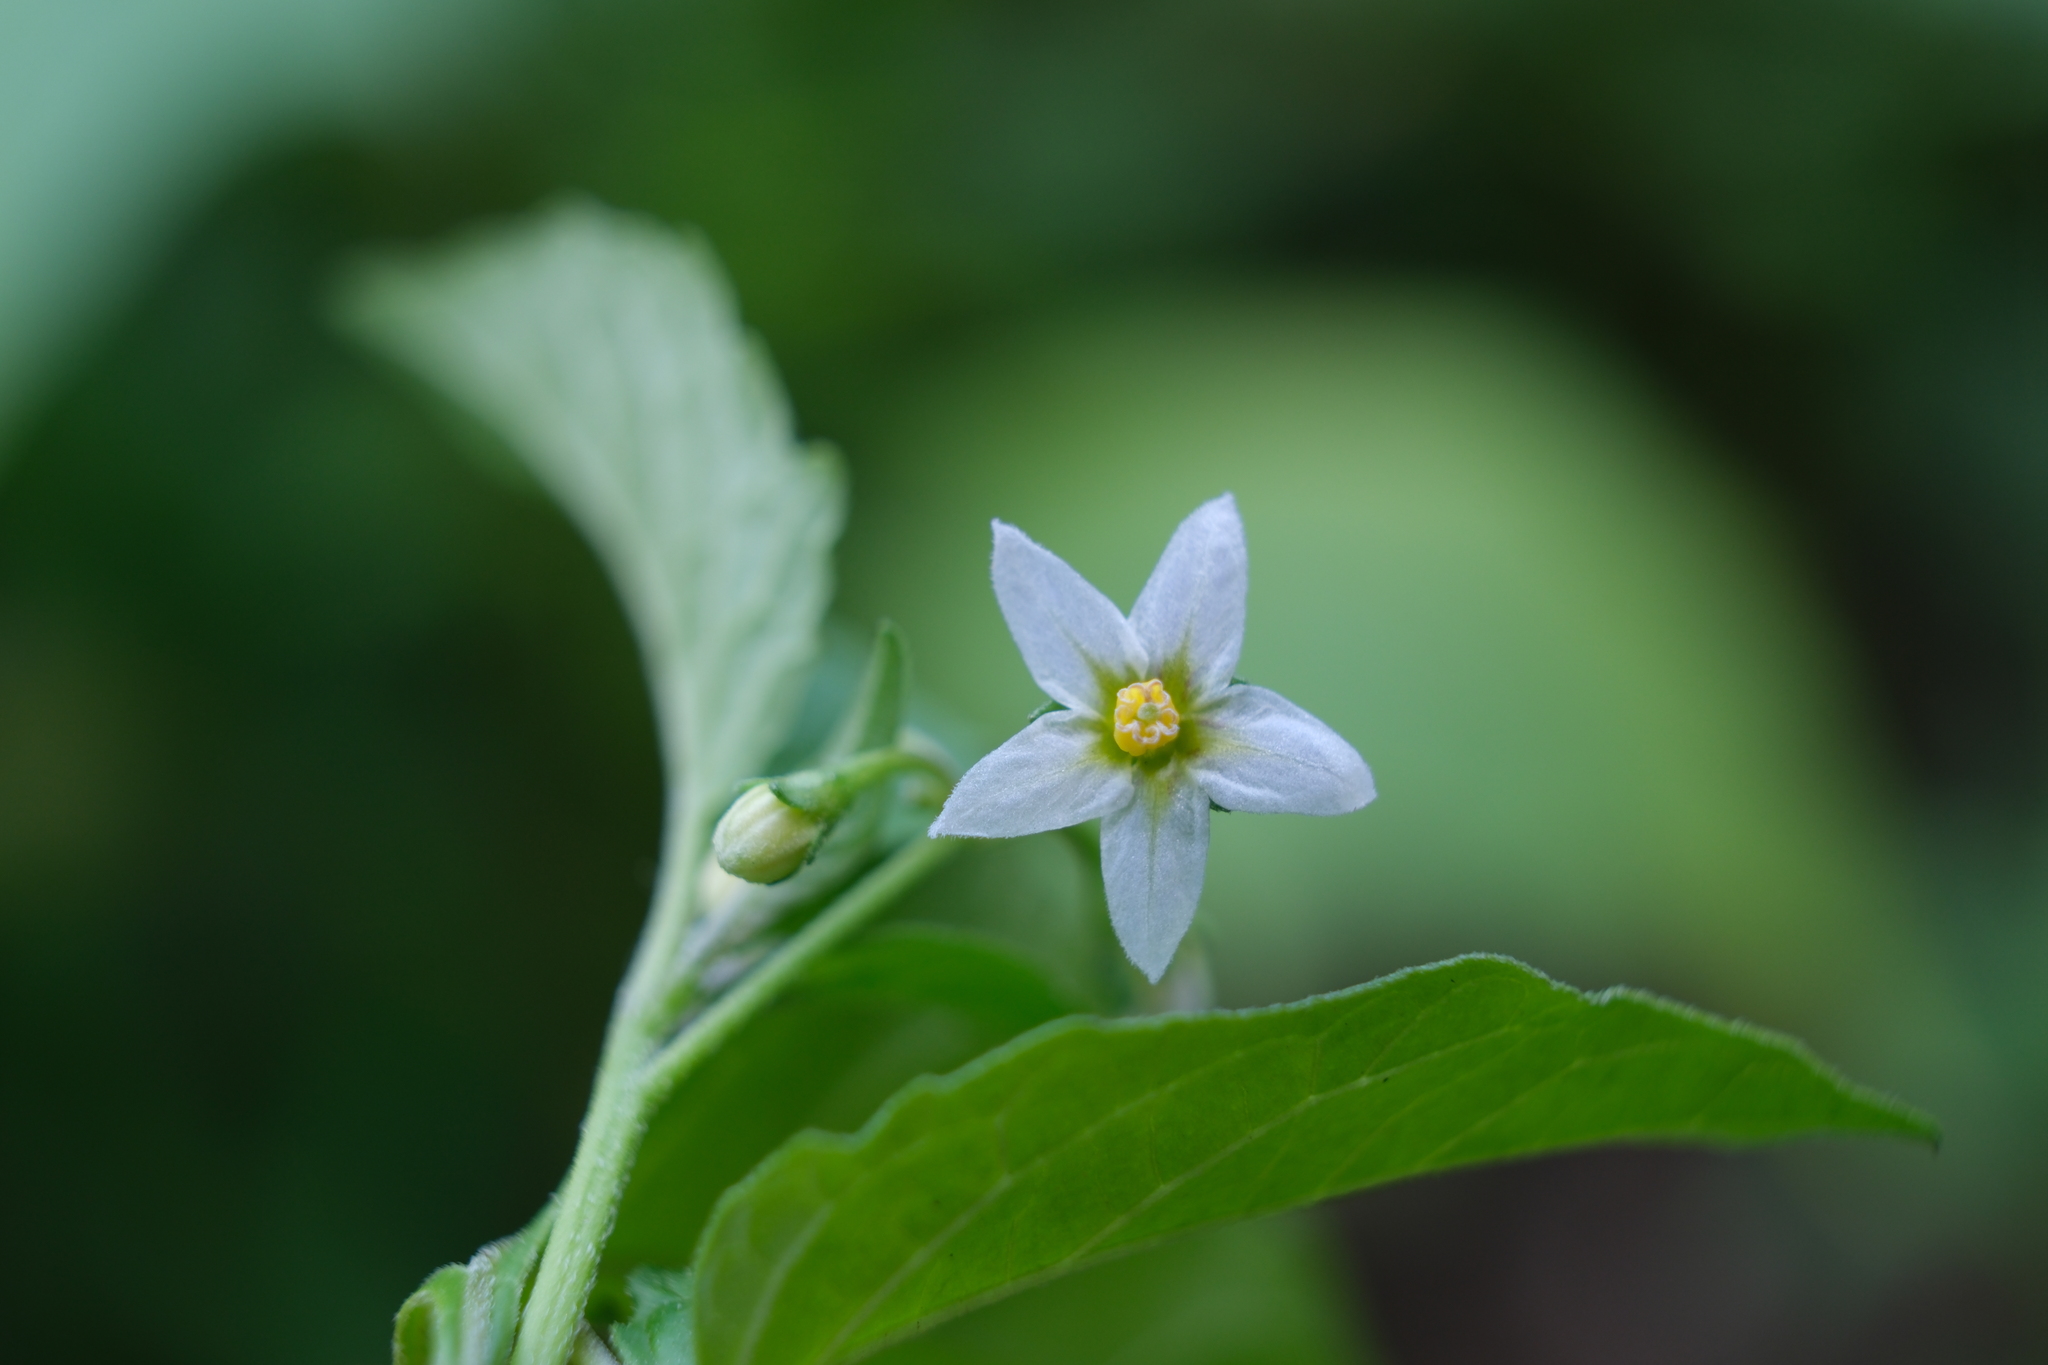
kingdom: Plantae
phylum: Tracheophyta
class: Magnoliopsida
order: Solanales
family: Solanaceae
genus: Solanum
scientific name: Solanum emulans
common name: Eastern black nightshade
